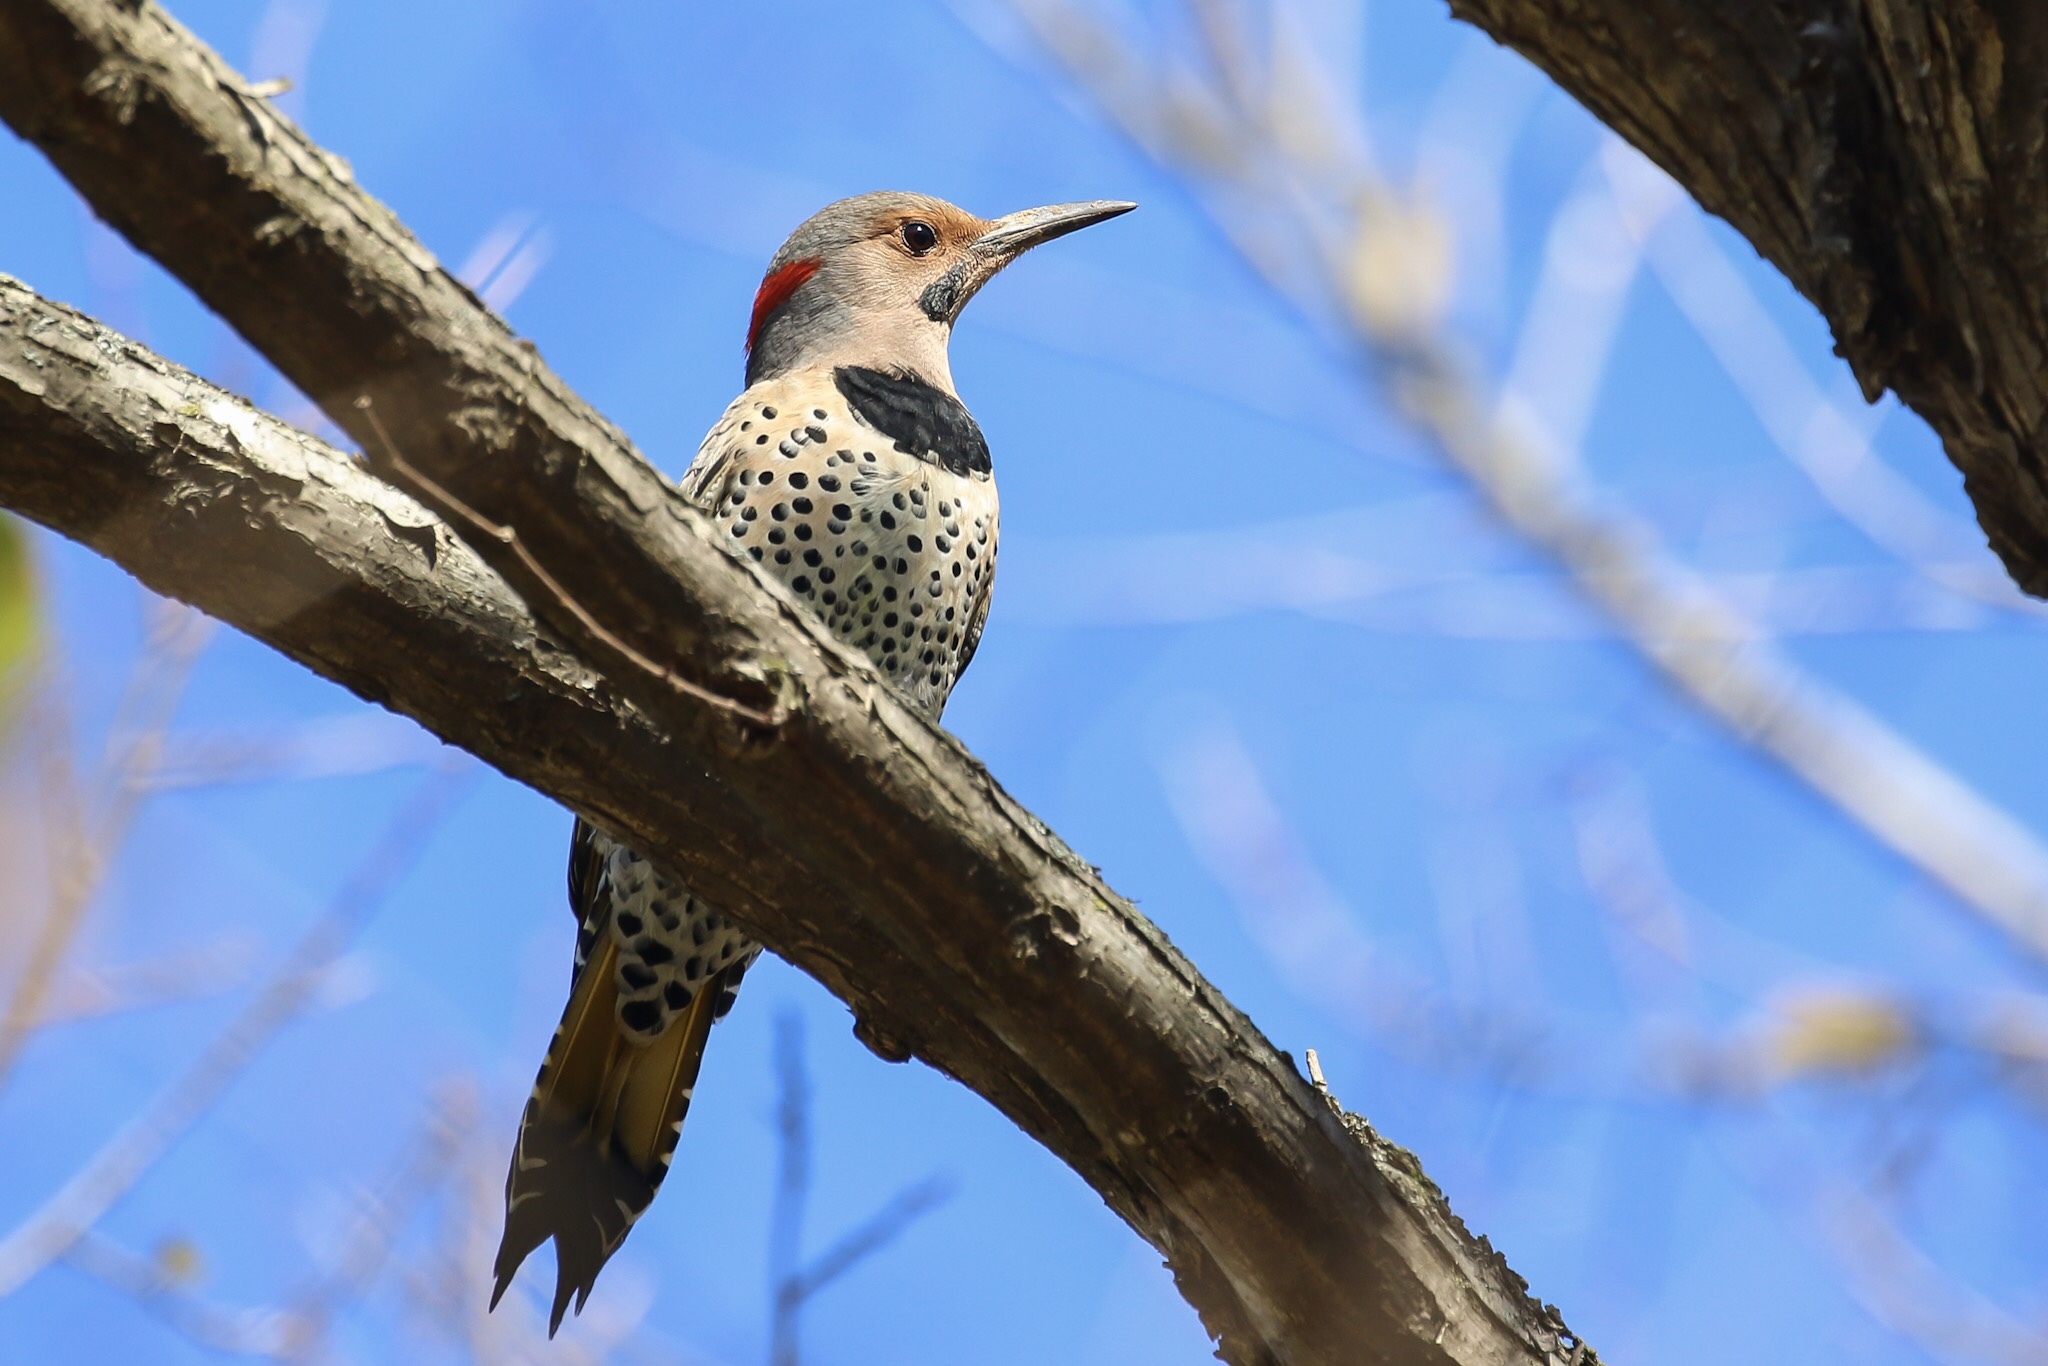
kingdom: Animalia
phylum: Chordata
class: Aves
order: Piciformes
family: Picidae
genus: Colaptes
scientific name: Colaptes auratus
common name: Northern flicker
